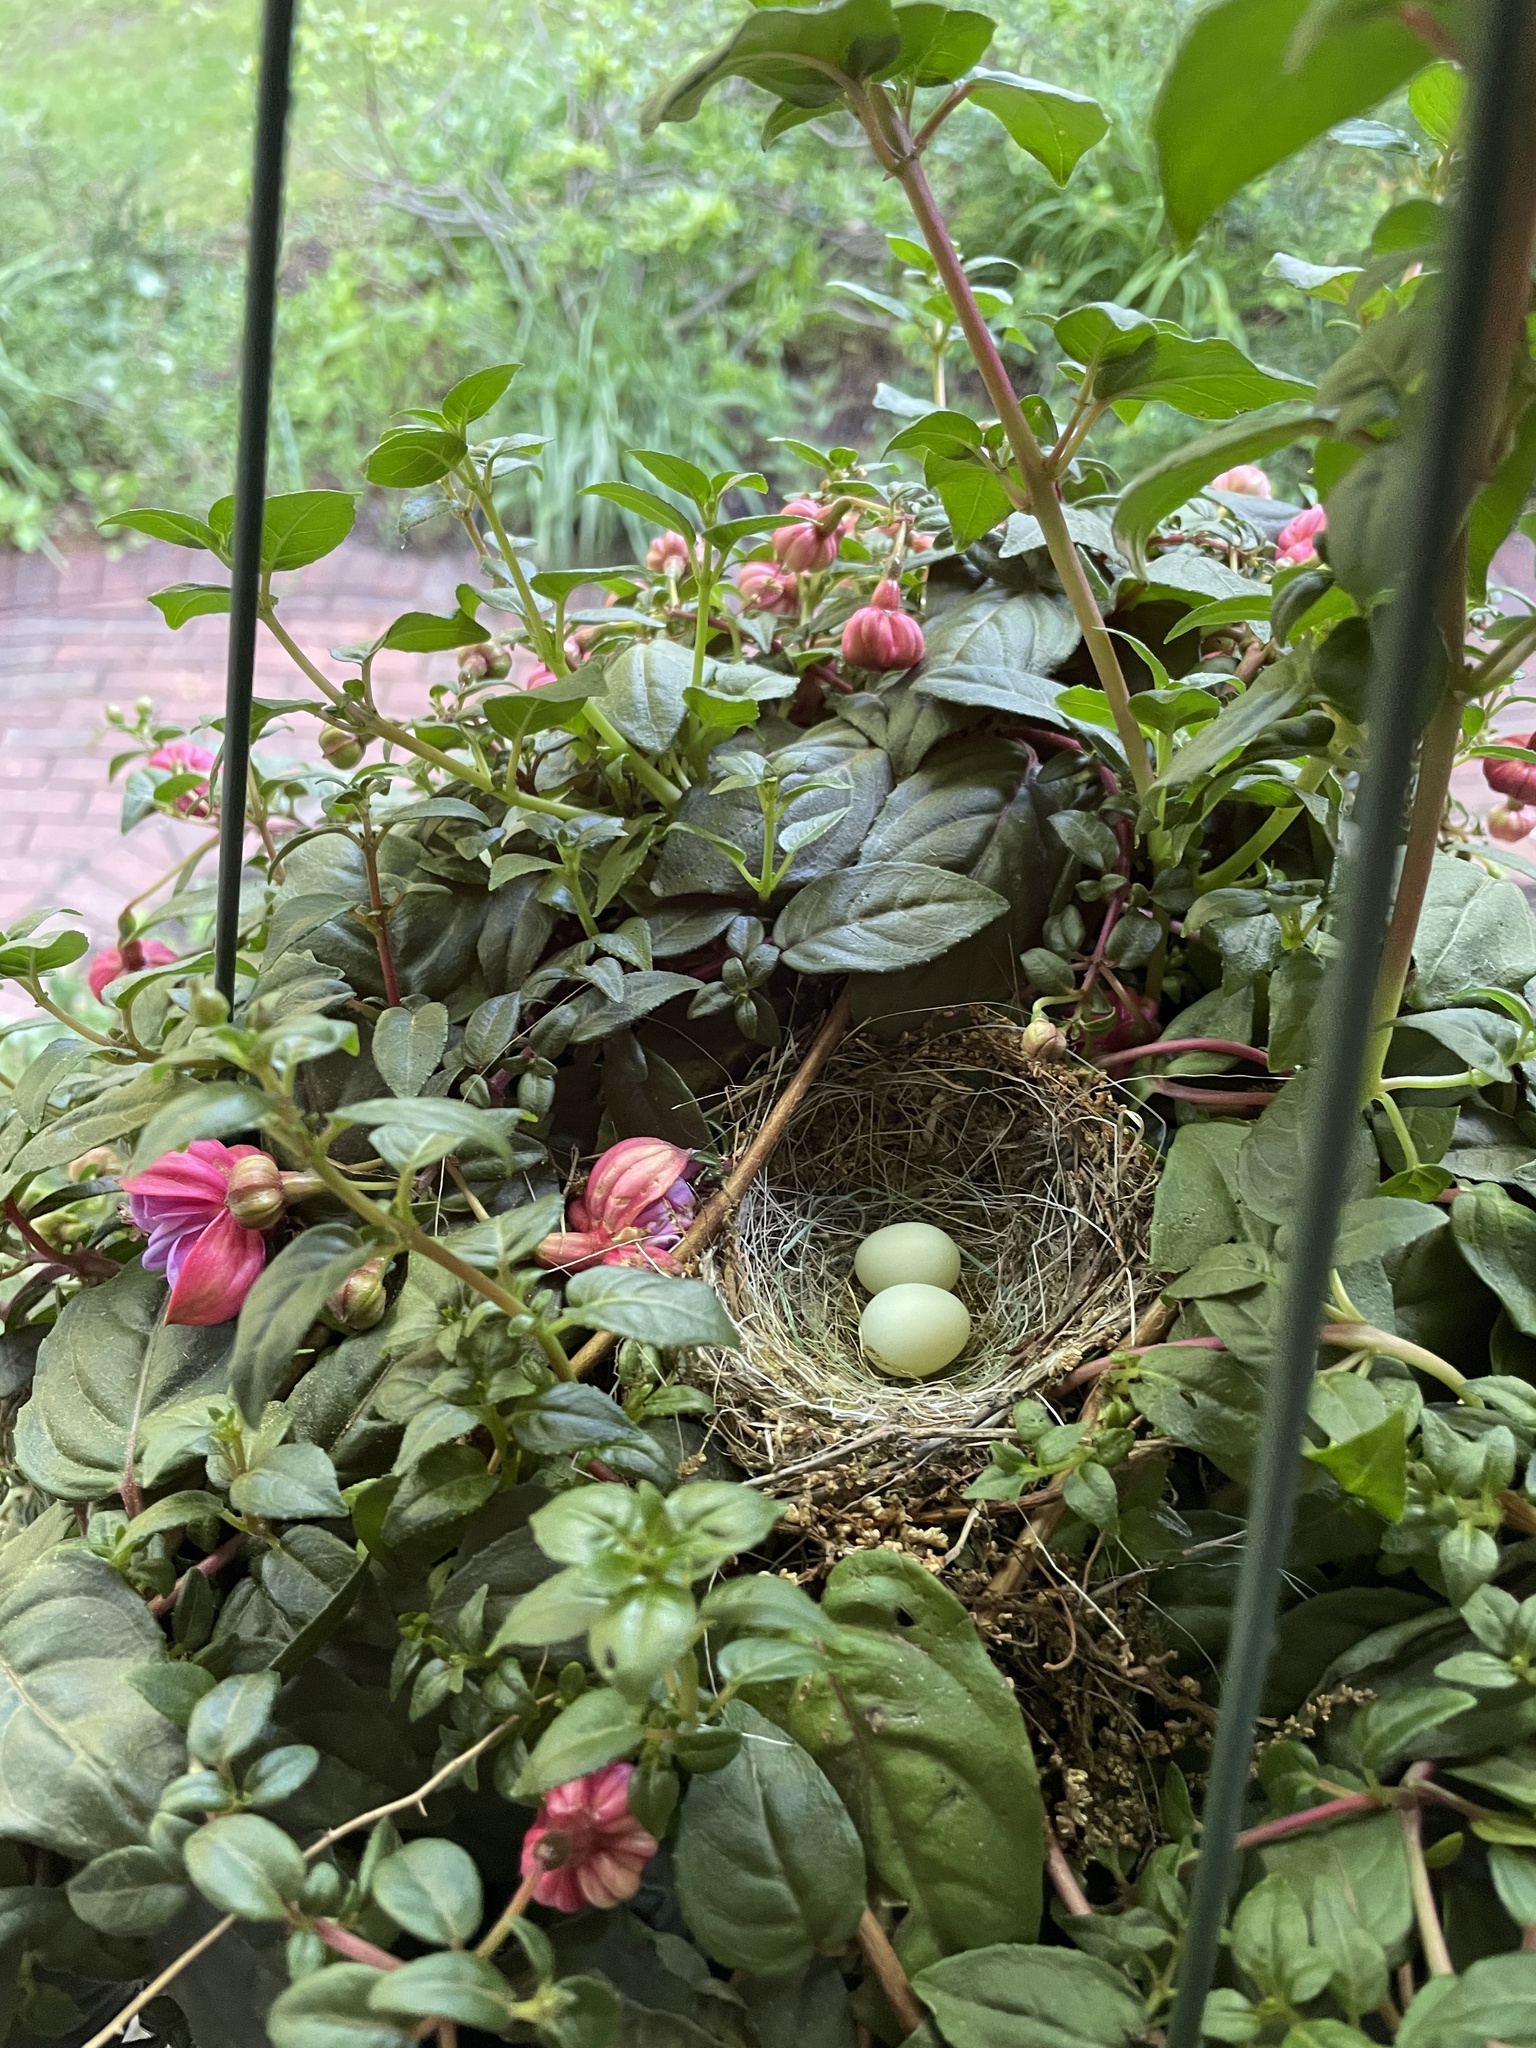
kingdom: Animalia
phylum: Chordata
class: Aves
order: Passeriformes
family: Fringillidae
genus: Haemorhous
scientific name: Haemorhous mexicanus
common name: House finch
